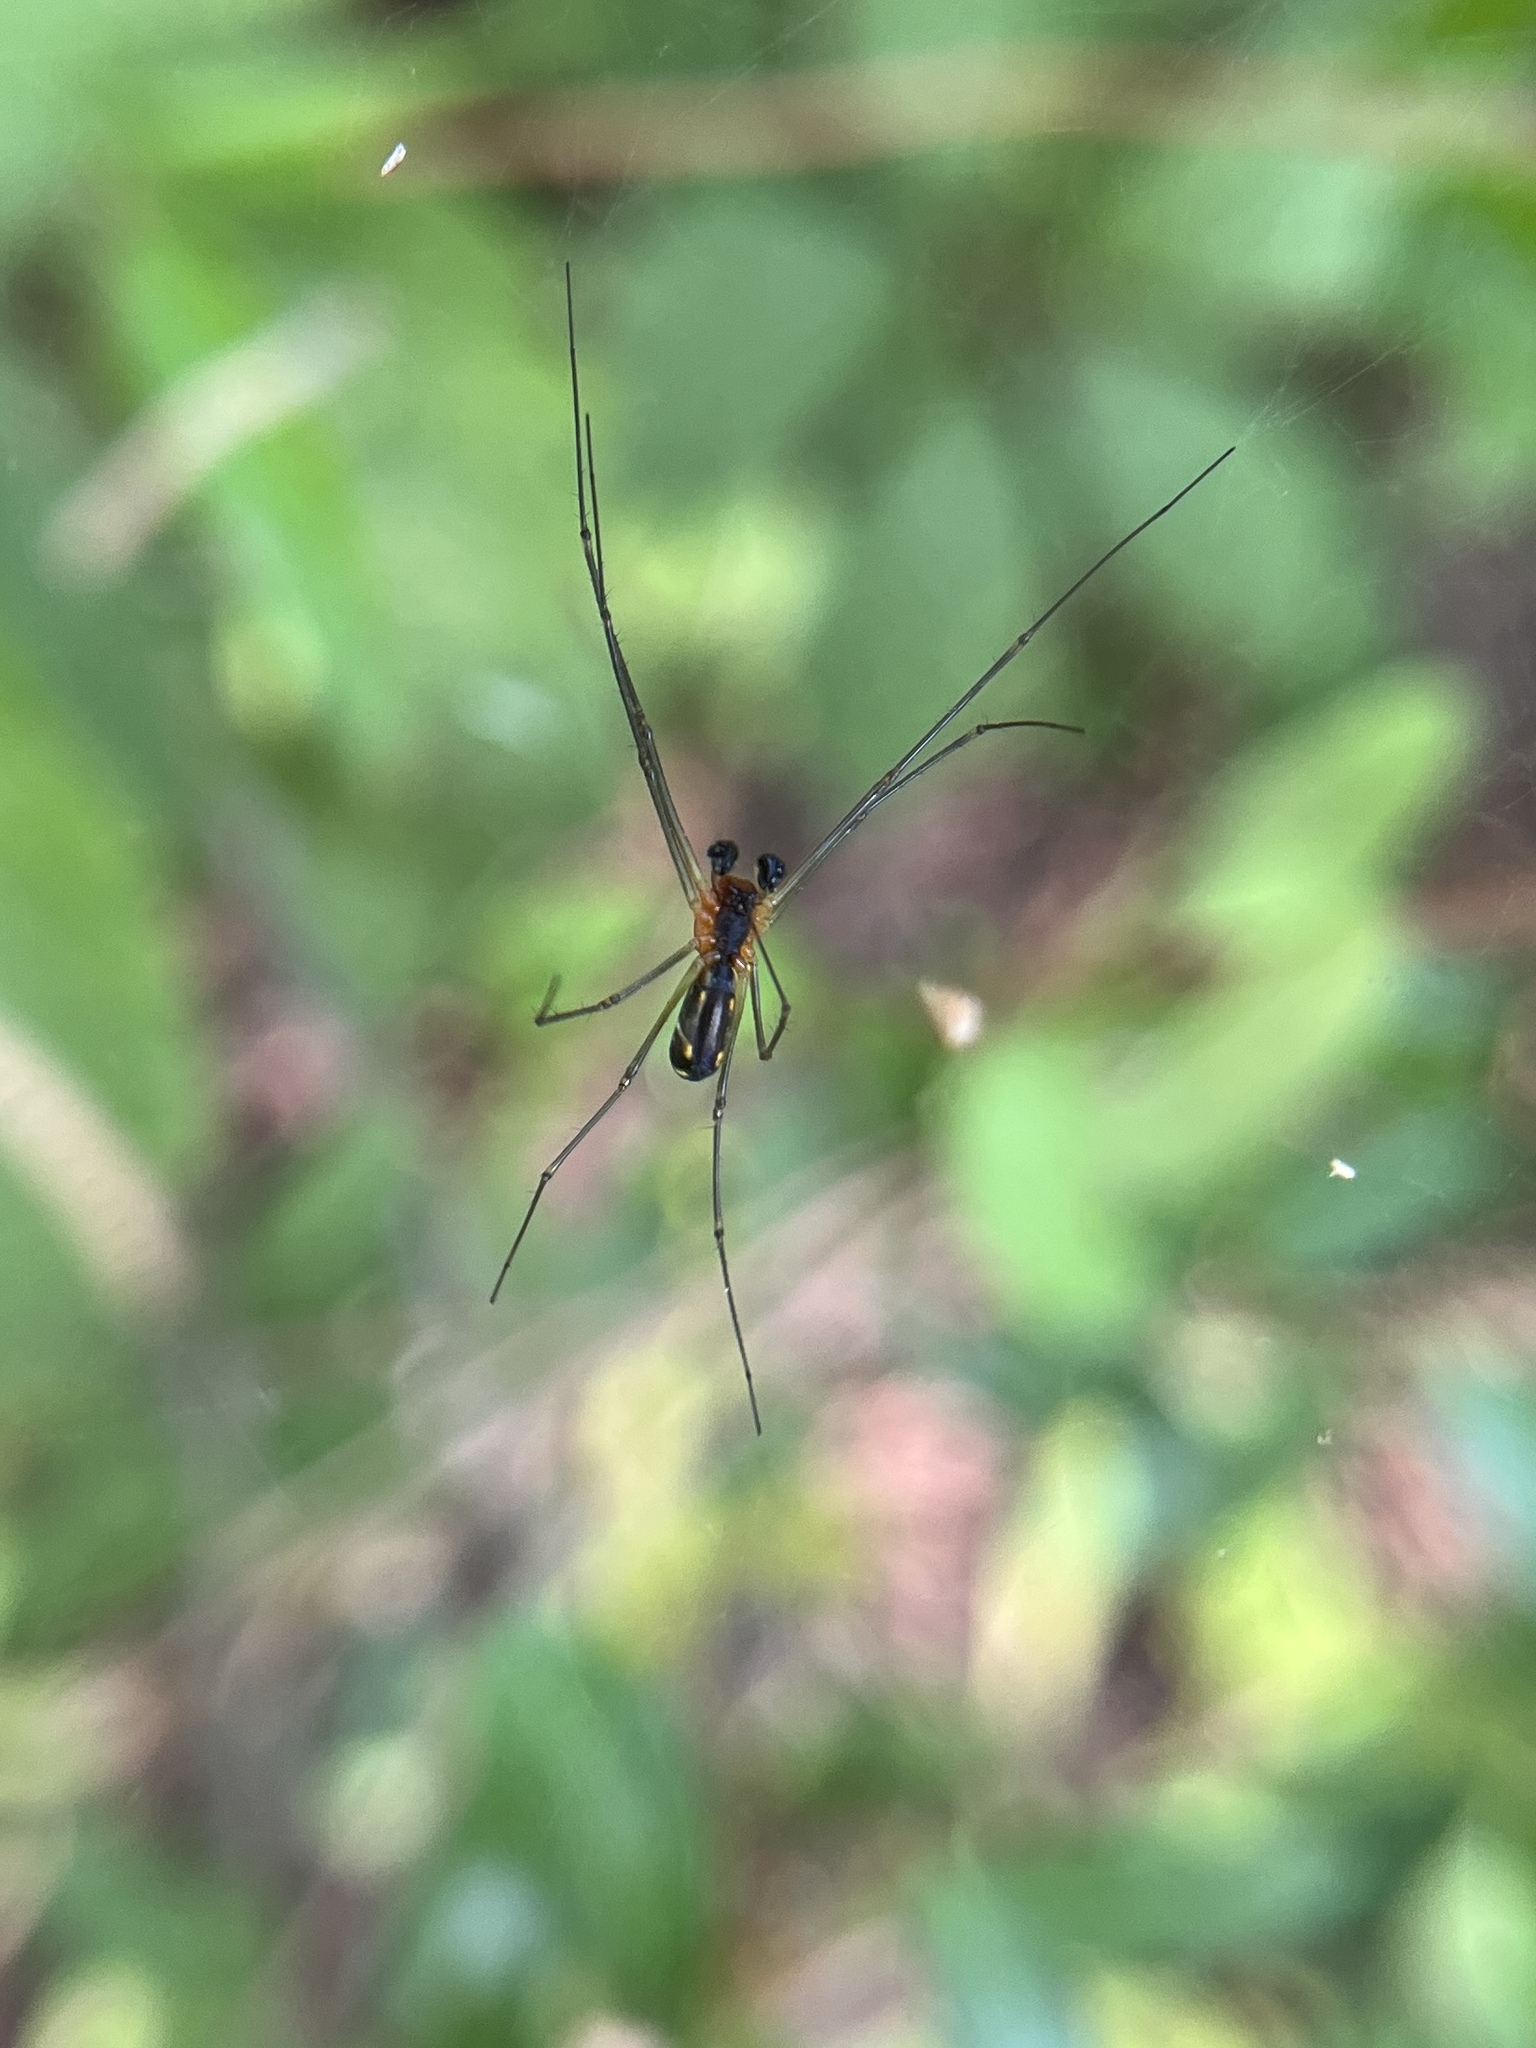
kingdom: Animalia
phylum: Arthropoda
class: Arachnida
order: Araneae
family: Linyphiidae
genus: Neriene
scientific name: Neriene radiata
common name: Filmy dome spider
